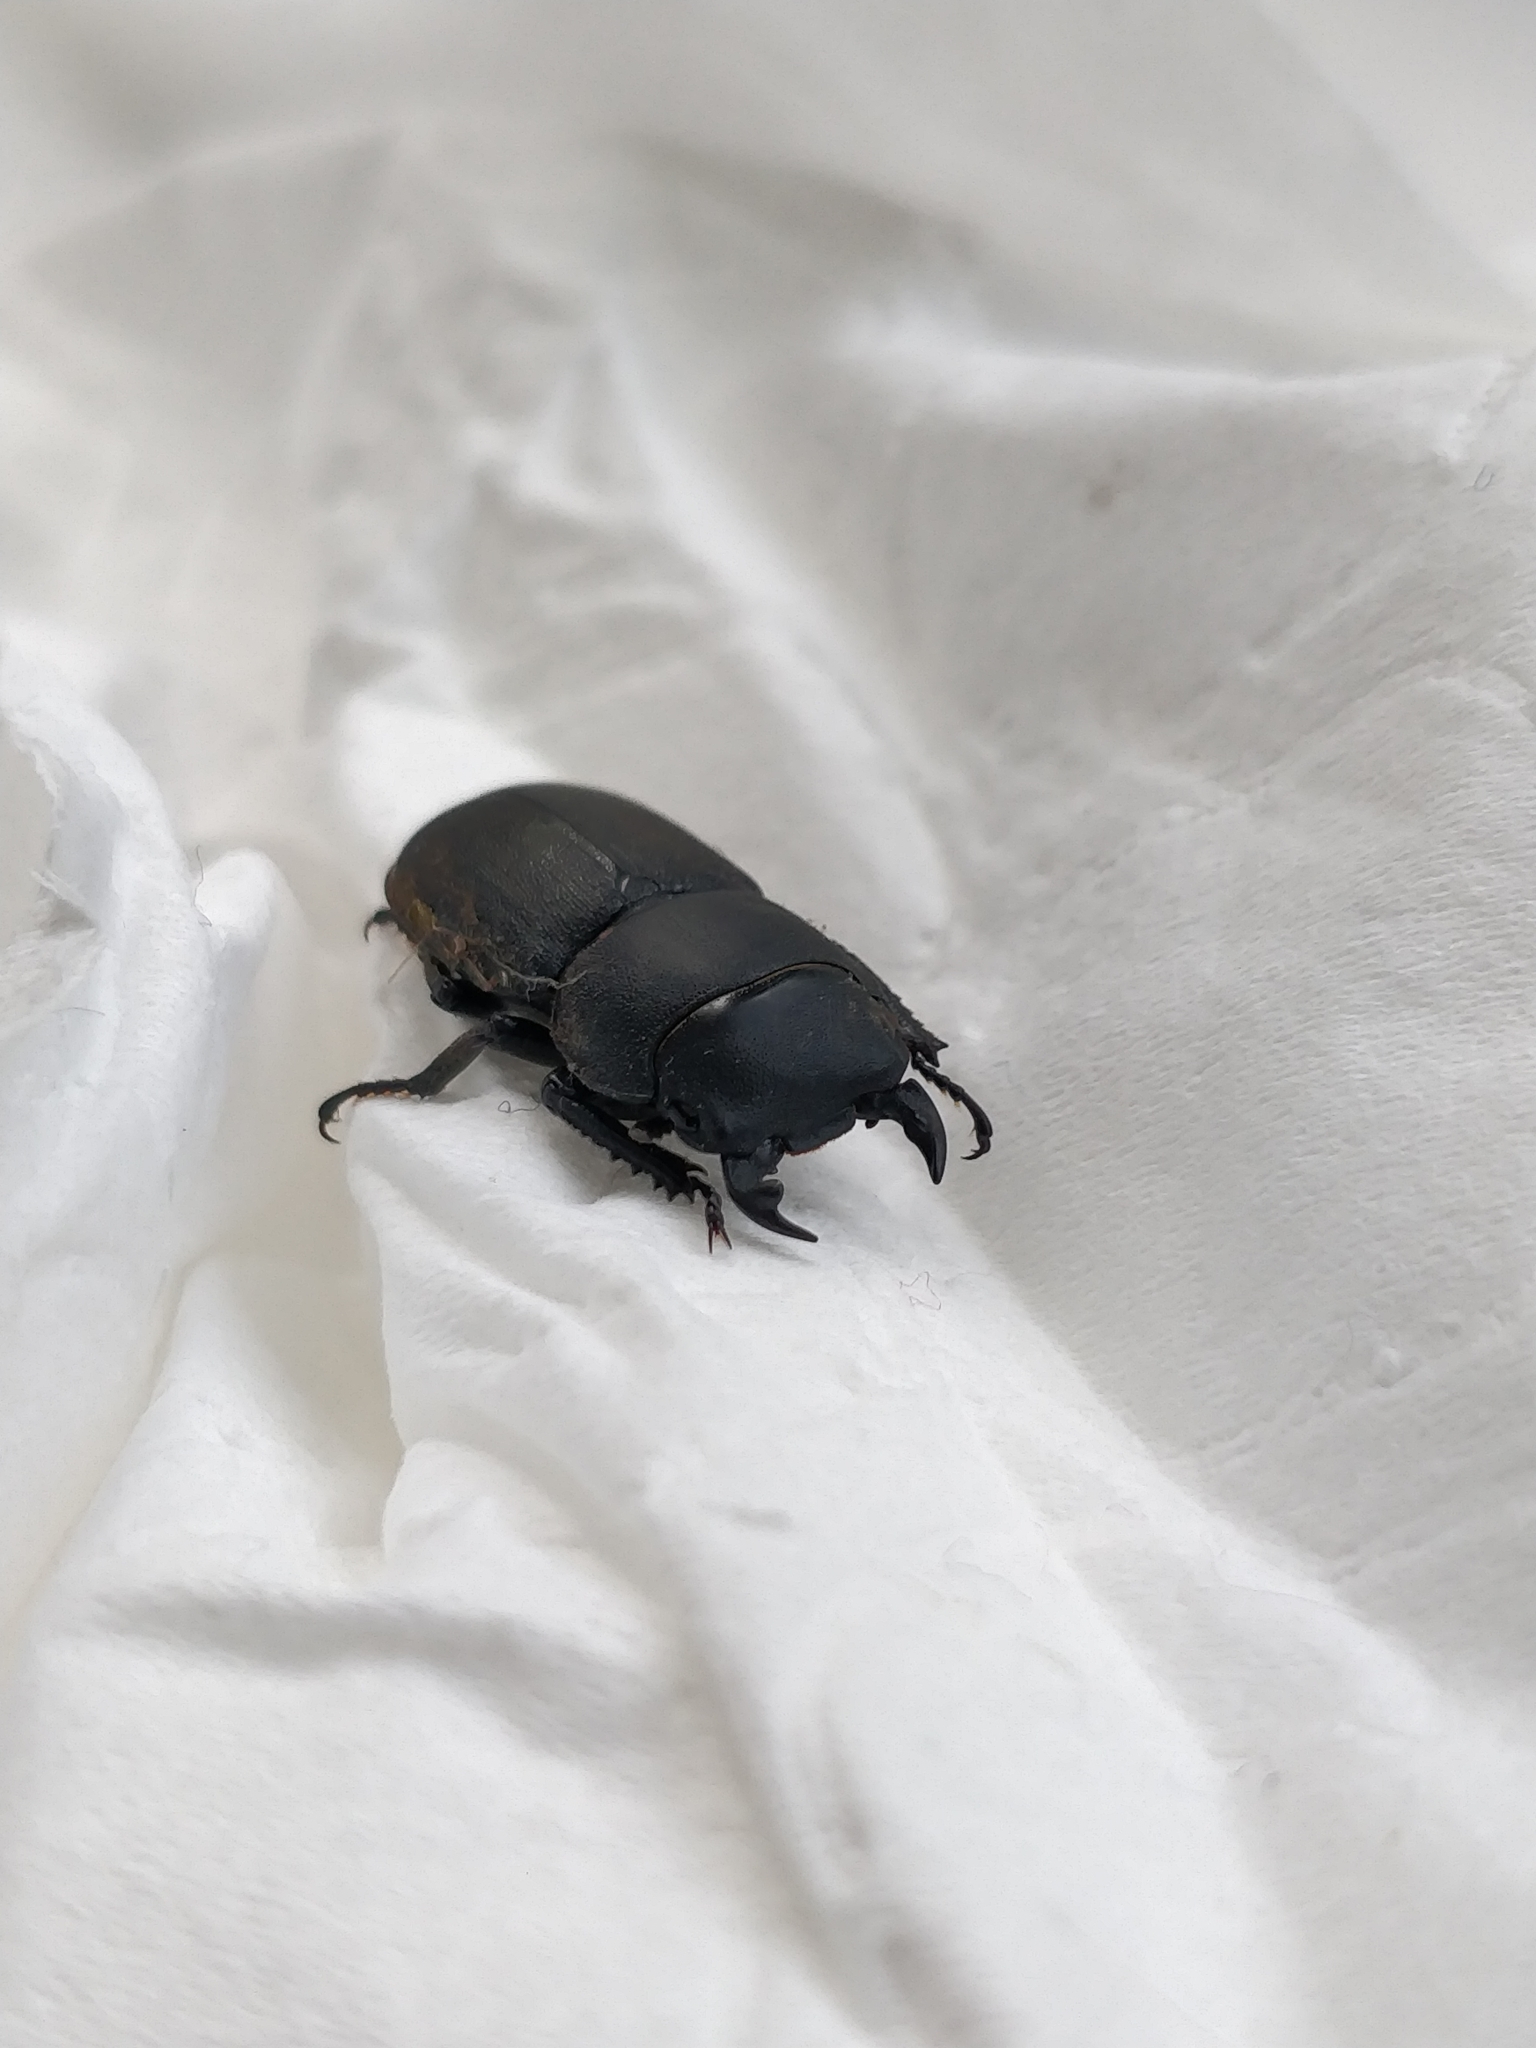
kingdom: Animalia
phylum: Arthropoda
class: Insecta
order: Coleoptera
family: Lucanidae
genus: Dorcus
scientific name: Dorcus parallelipipedus
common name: Lesser stag beetle
